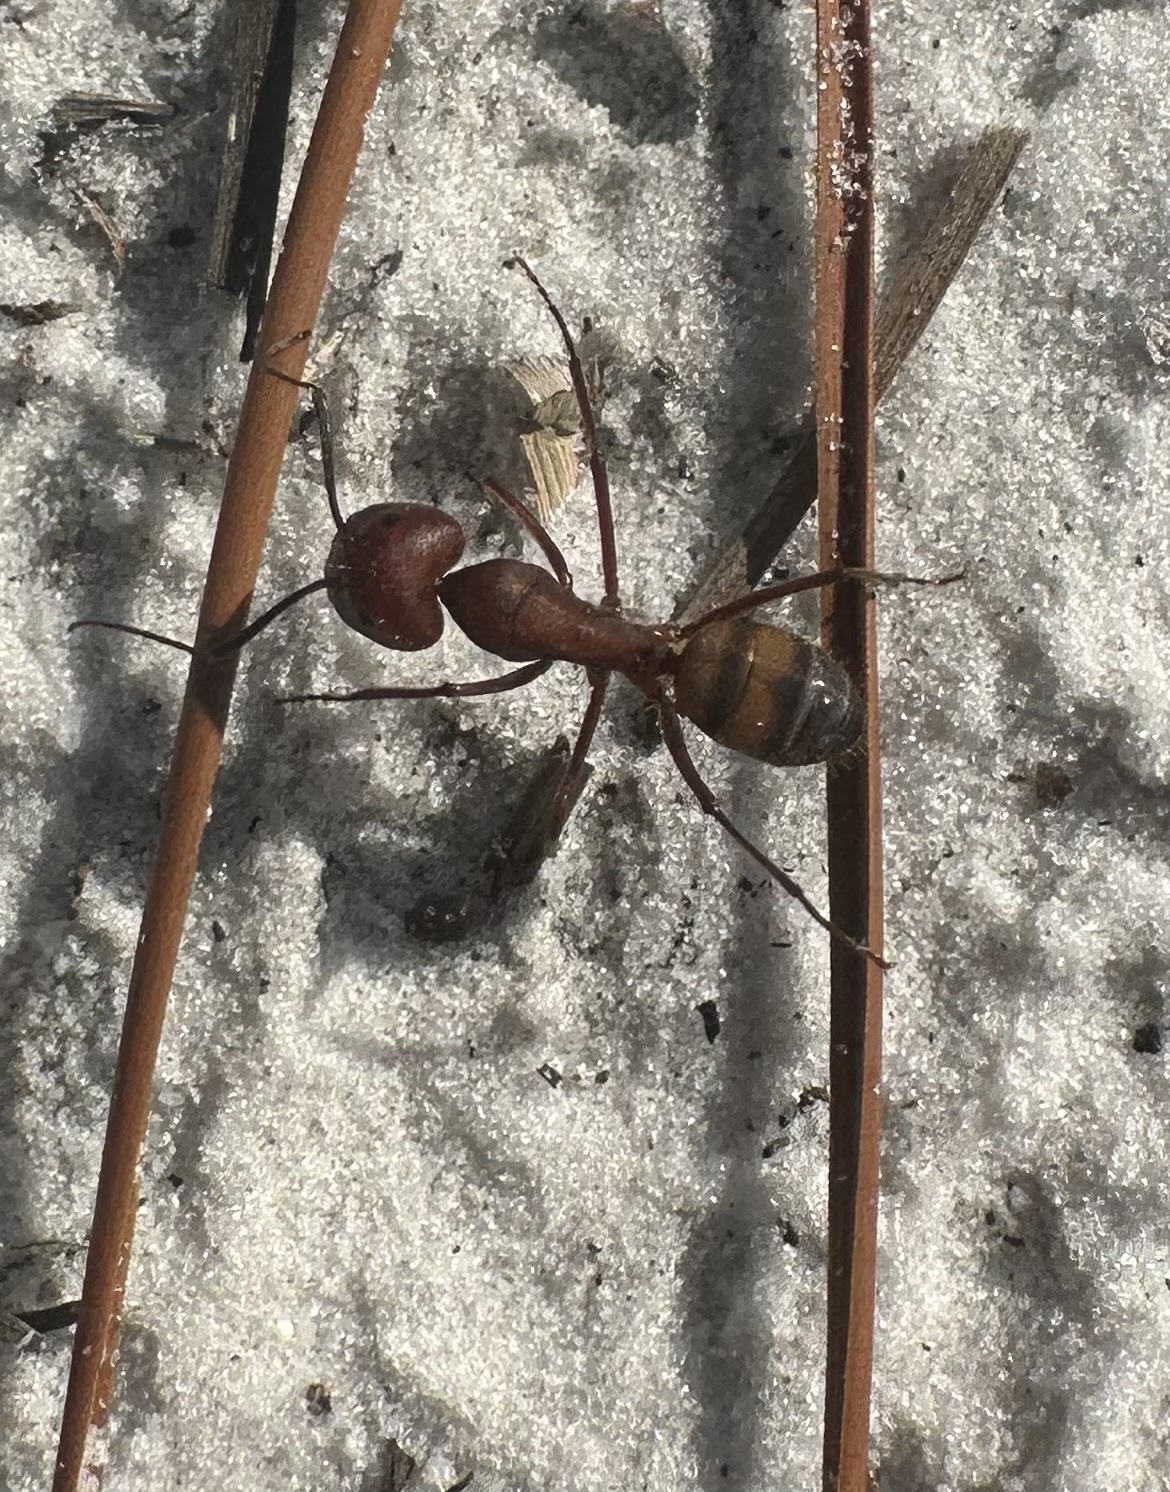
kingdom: Animalia
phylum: Arthropoda
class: Insecta
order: Hymenoptera
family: Formicidae
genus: Camponotus
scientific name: Camponotus socius
